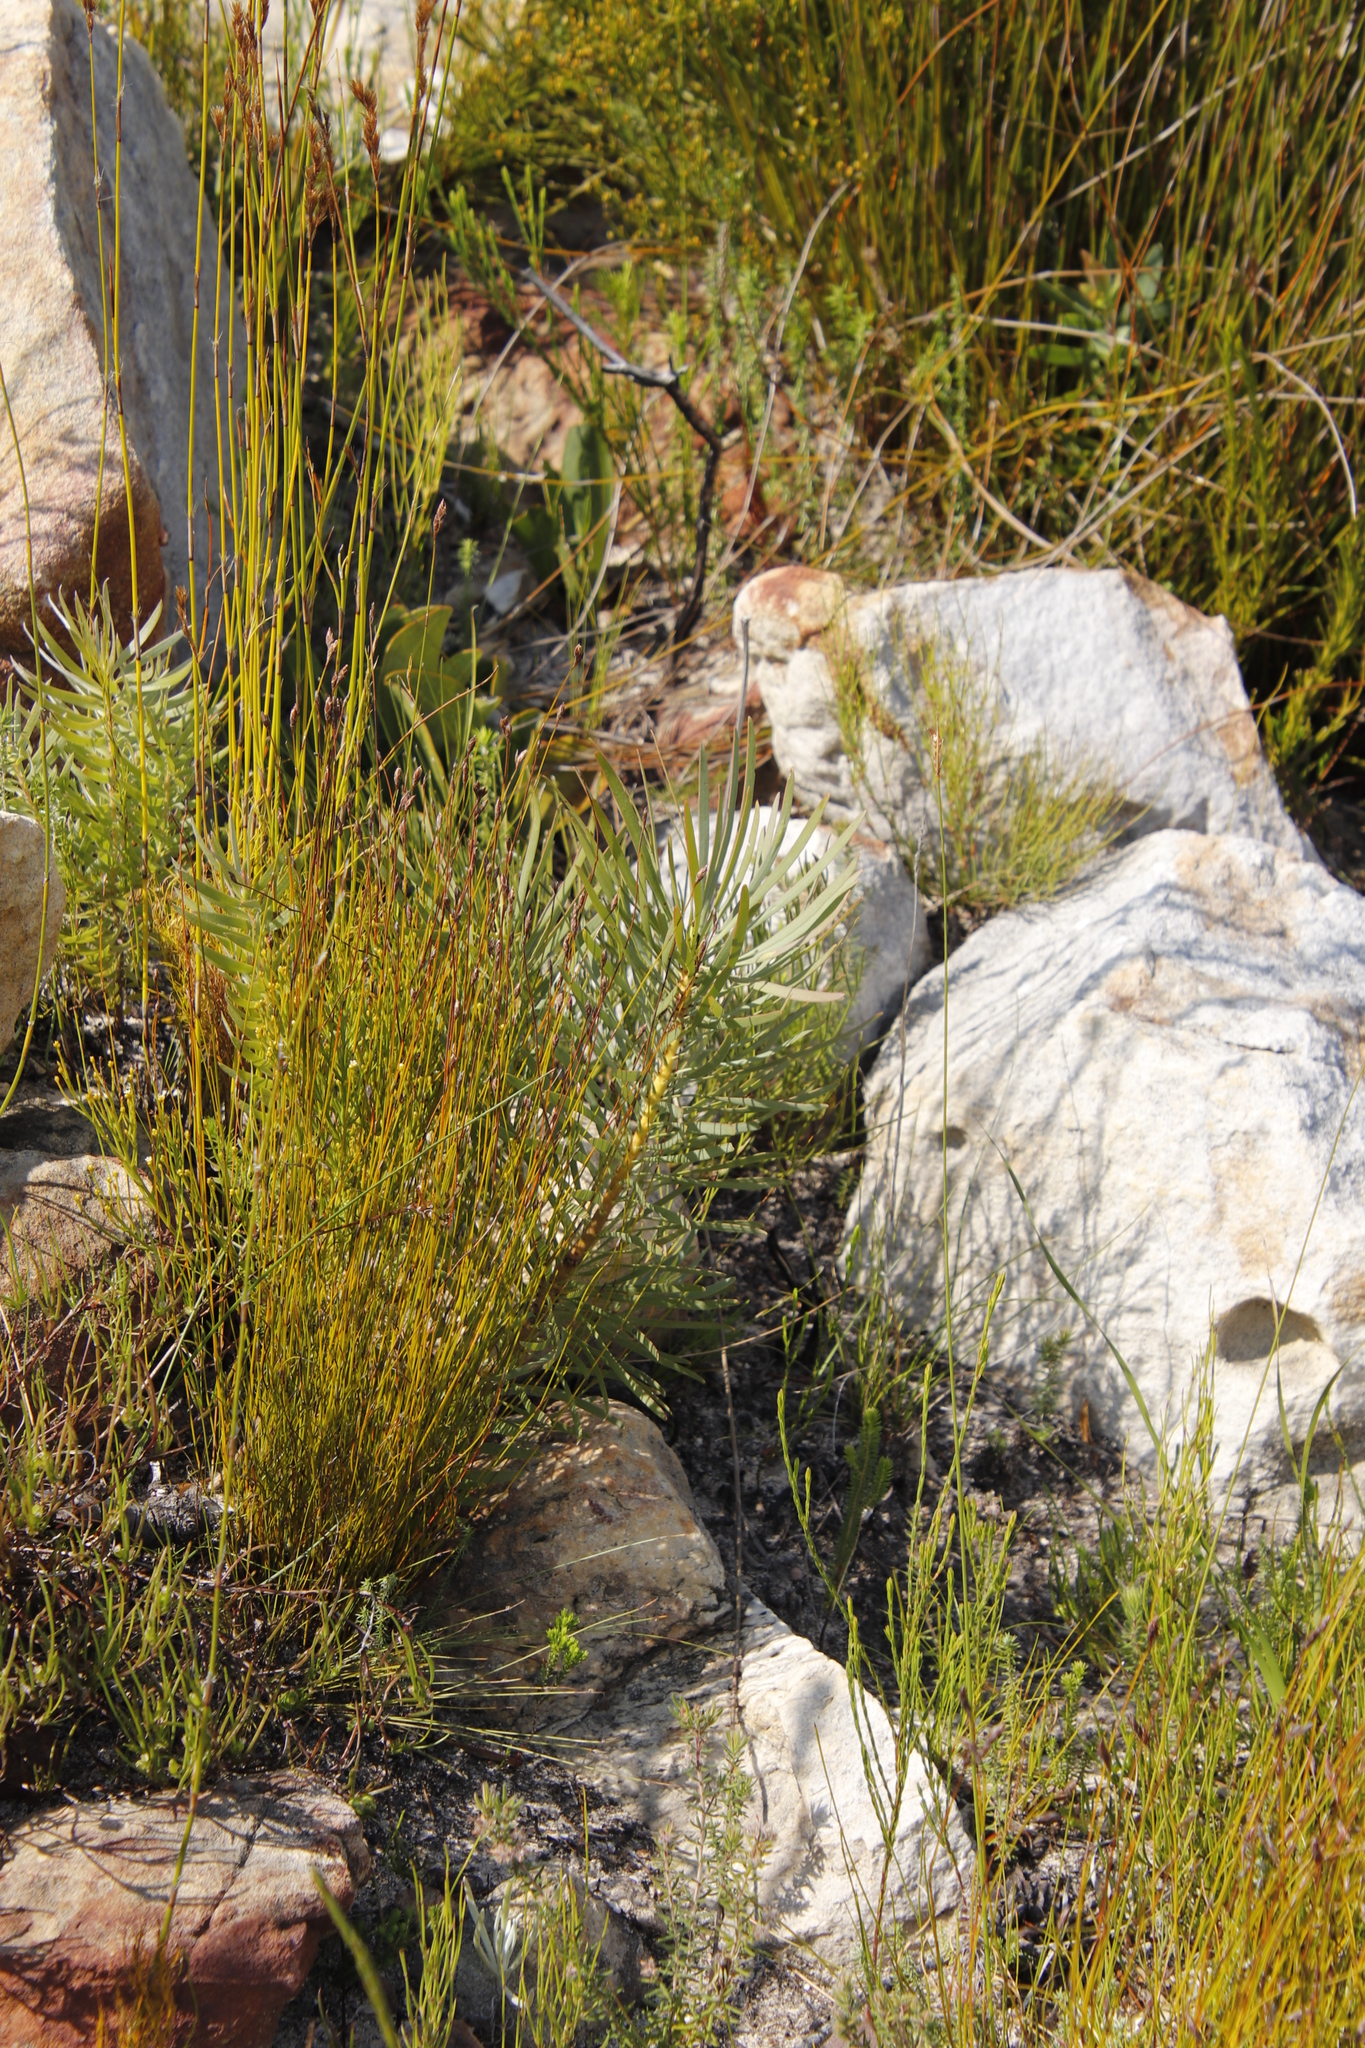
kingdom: Plantae
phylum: Tracheophyta
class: Magnoliopsida
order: Proteales
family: Proteaceae
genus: Protea
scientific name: Protea repens
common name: Sugarbush
